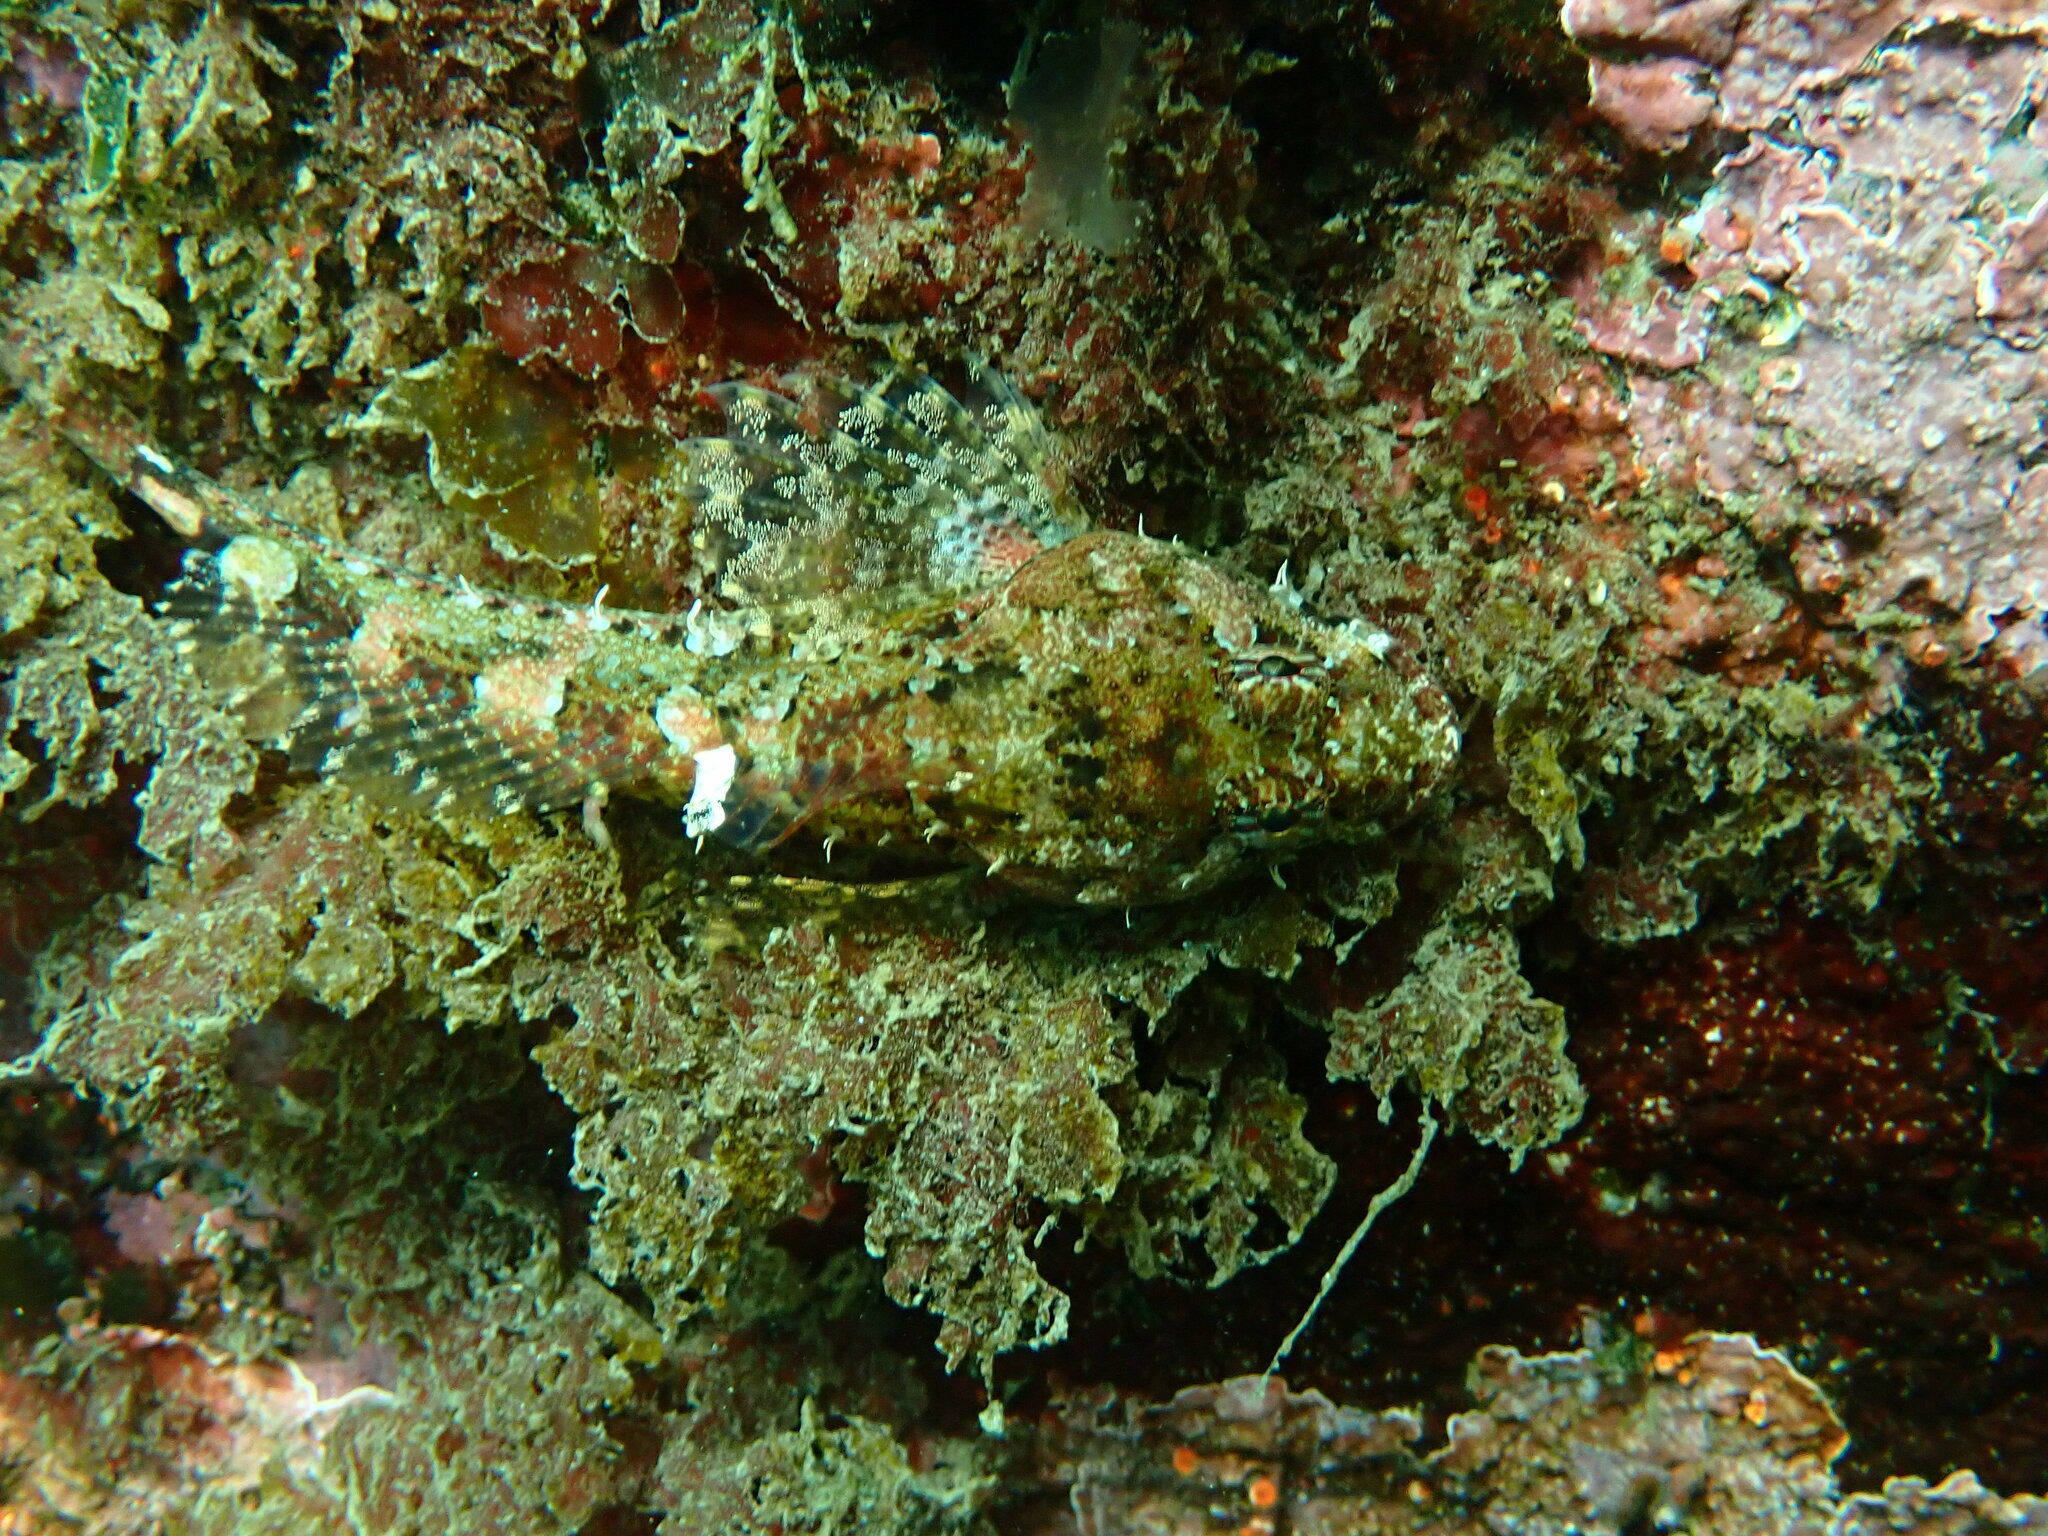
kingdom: Animalia
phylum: Chordata
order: Scorpaeniformes
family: Cottidae
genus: Artedius
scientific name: Artedius lateralis
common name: Smooth-head sculpin
